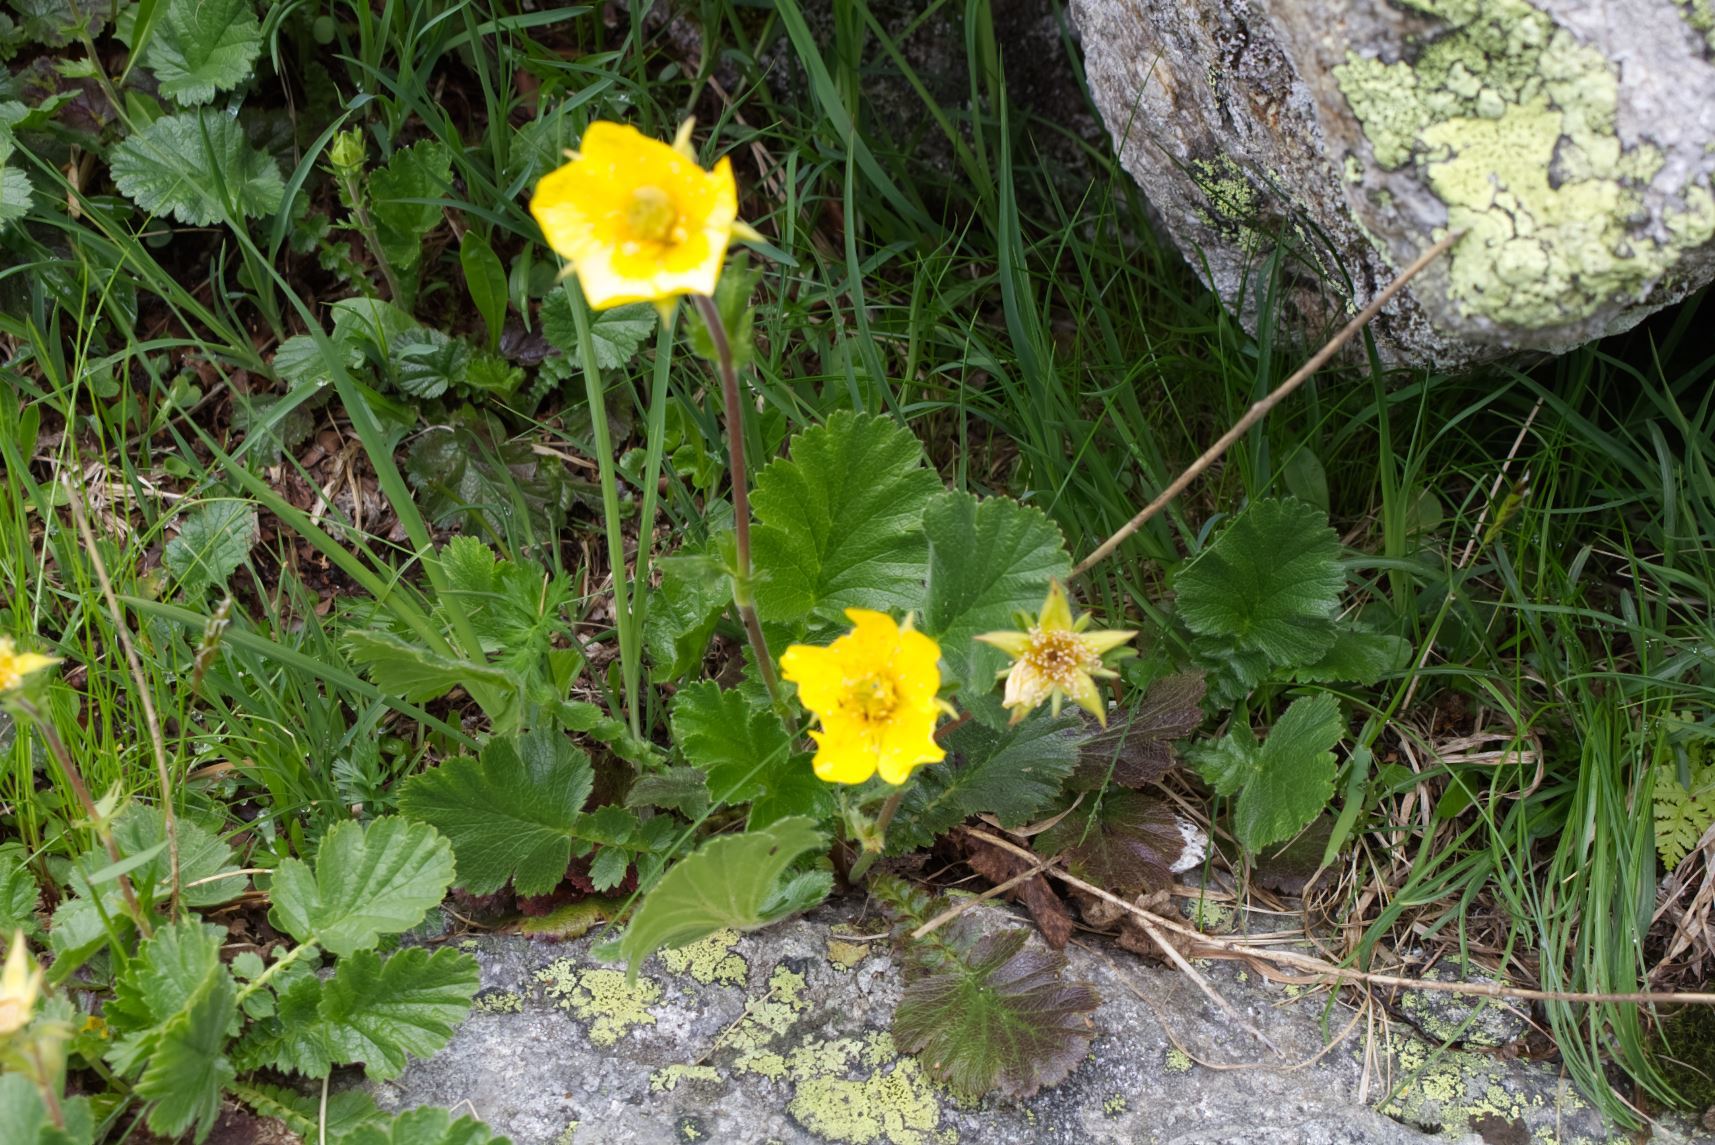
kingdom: Plantae
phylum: Tracheophyta
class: Magnoliopsida
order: Rosales
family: Rosaceae
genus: Geum
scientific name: Geum montanum
